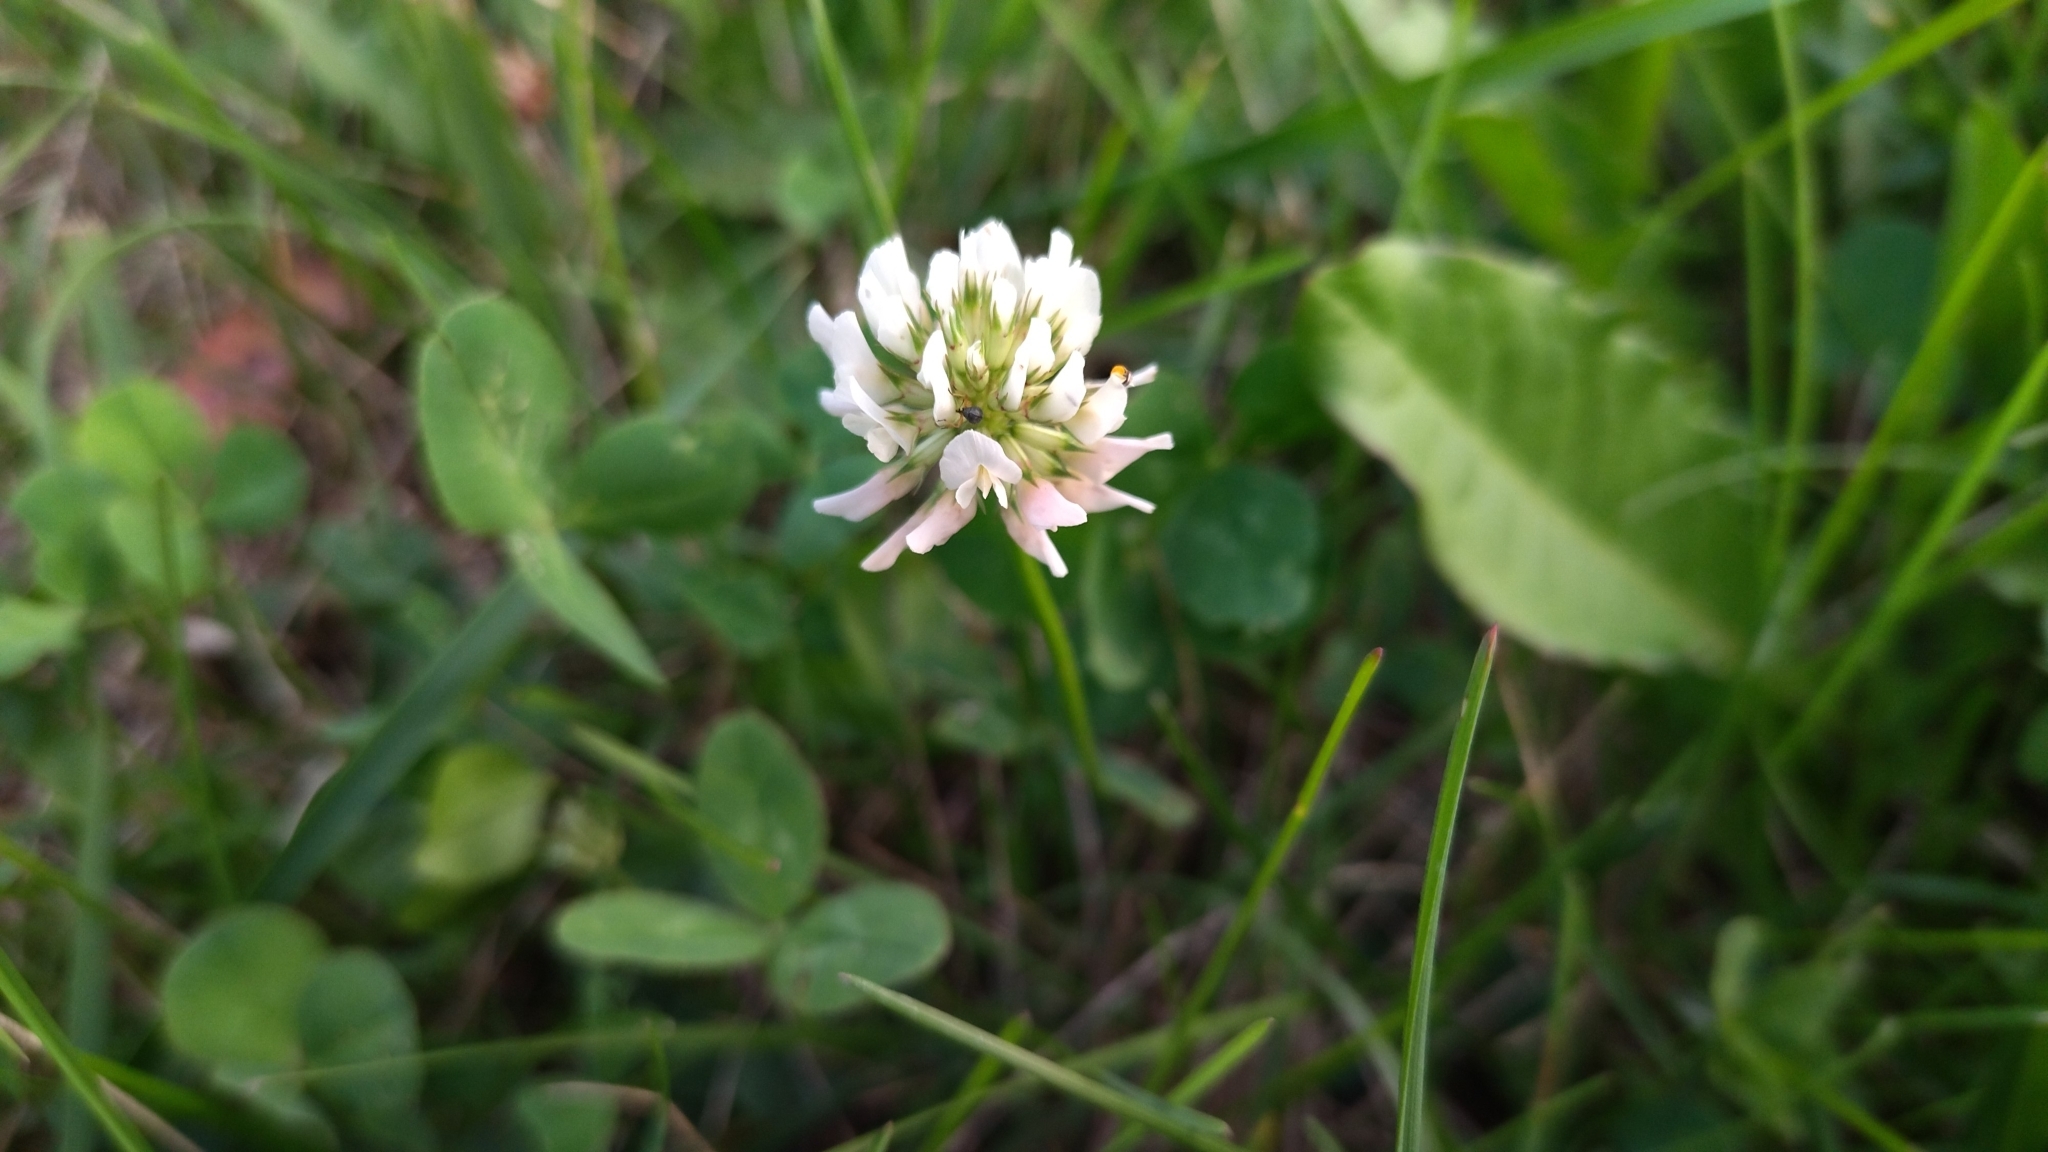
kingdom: Plantae
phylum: Tracheophyta
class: Magnoliopsida
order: Fabales
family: Fabaceae
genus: Trifolium
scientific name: Trifolium repens
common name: White clover
